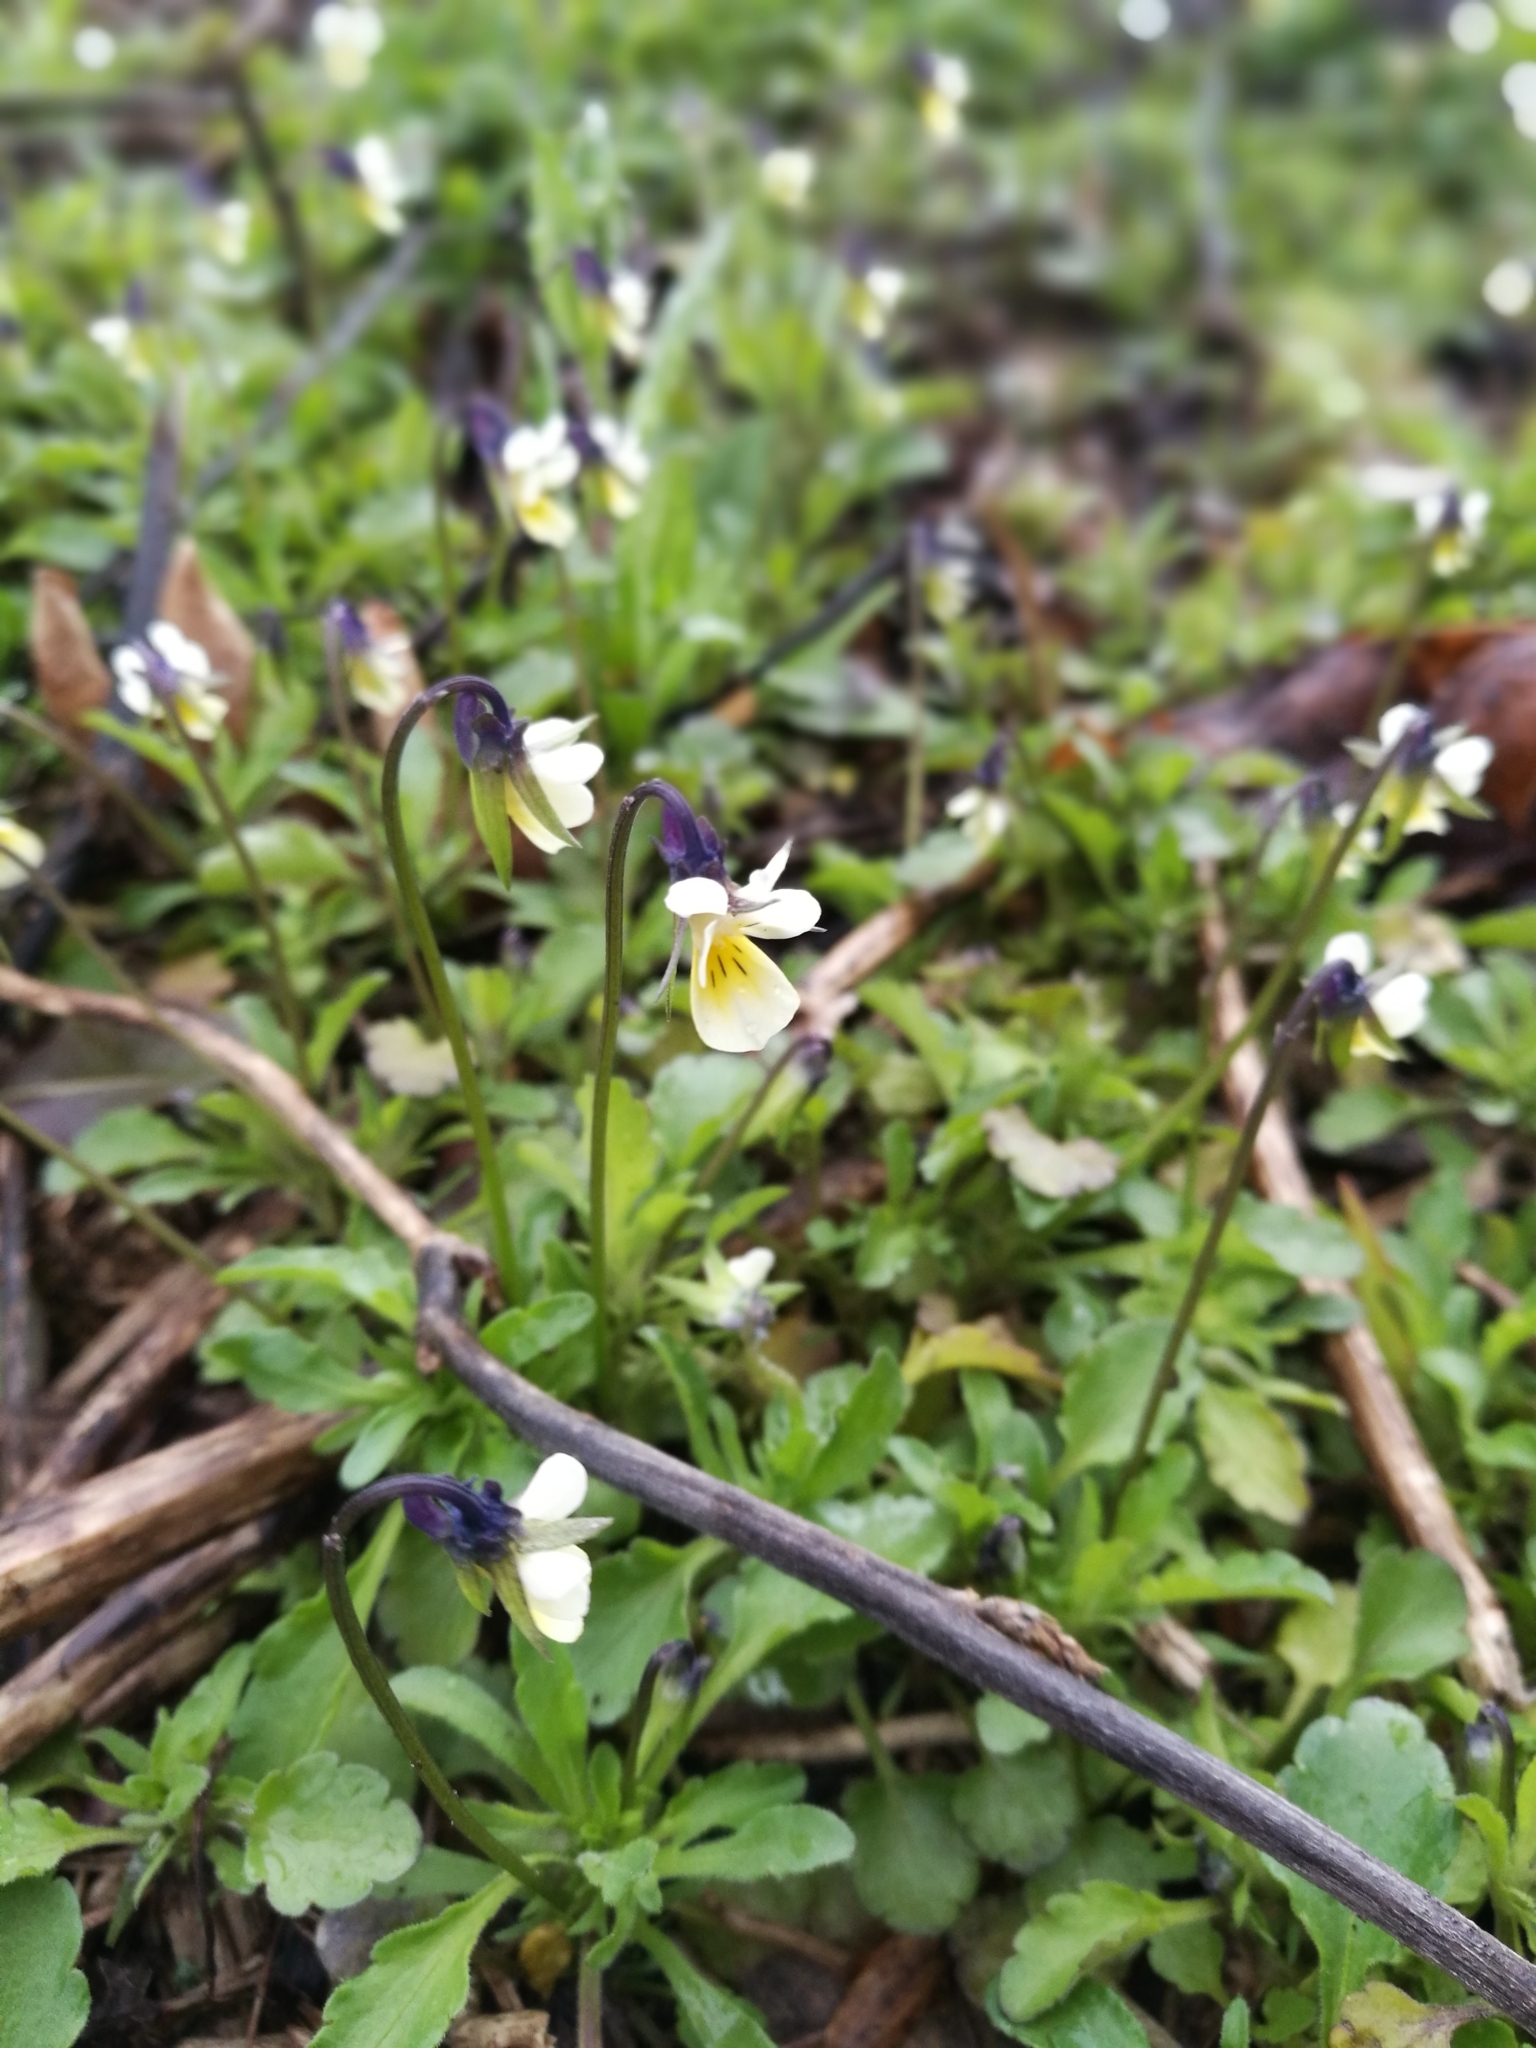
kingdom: Plantae
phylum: Tracheophyta
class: Magnoliopsida
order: Malpighiales
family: Violaceae
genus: Viola
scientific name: Viola arvensis
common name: Field pansy
